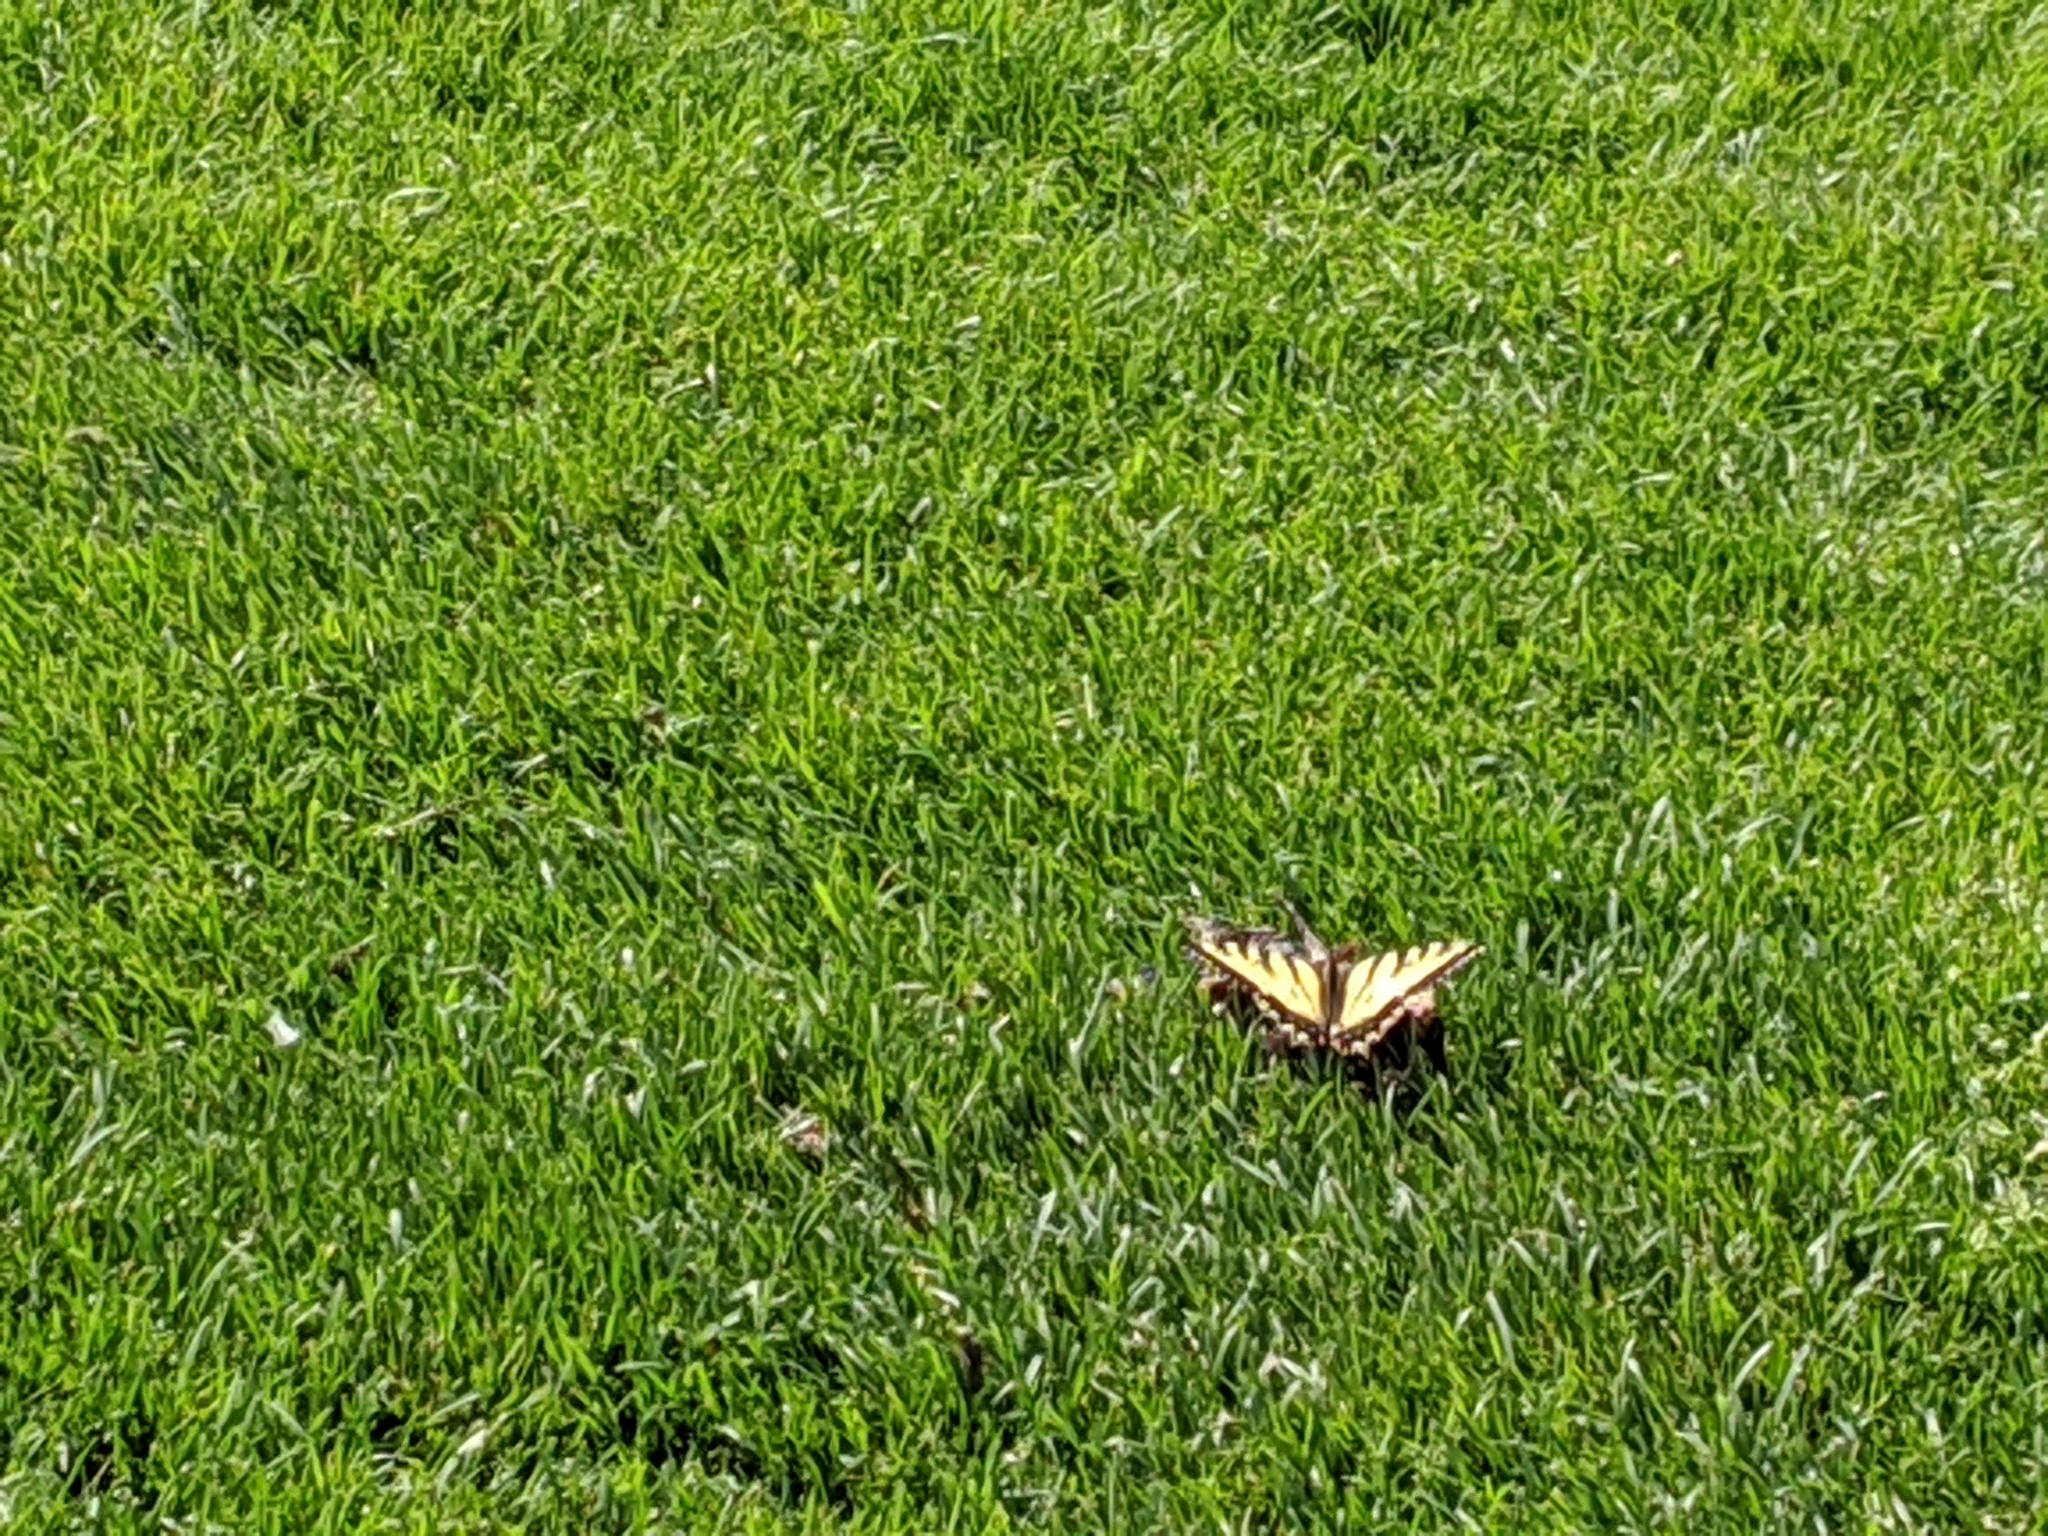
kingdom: Animalia
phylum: Arthropoda
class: Insecta
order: Lepidoptera
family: Papilionidae
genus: Papilio
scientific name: Papilio canadensis
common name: Canadian tiger swallowtail
